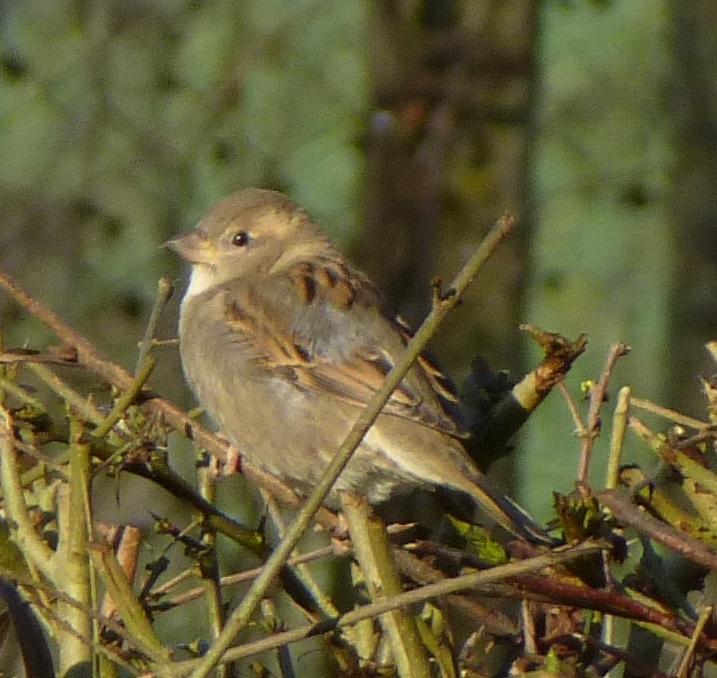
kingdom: Animalia
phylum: Chordata
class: Aves
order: Passeriformes
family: Passeridae
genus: Passer
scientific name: Passer domesticus
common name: House sparrow
